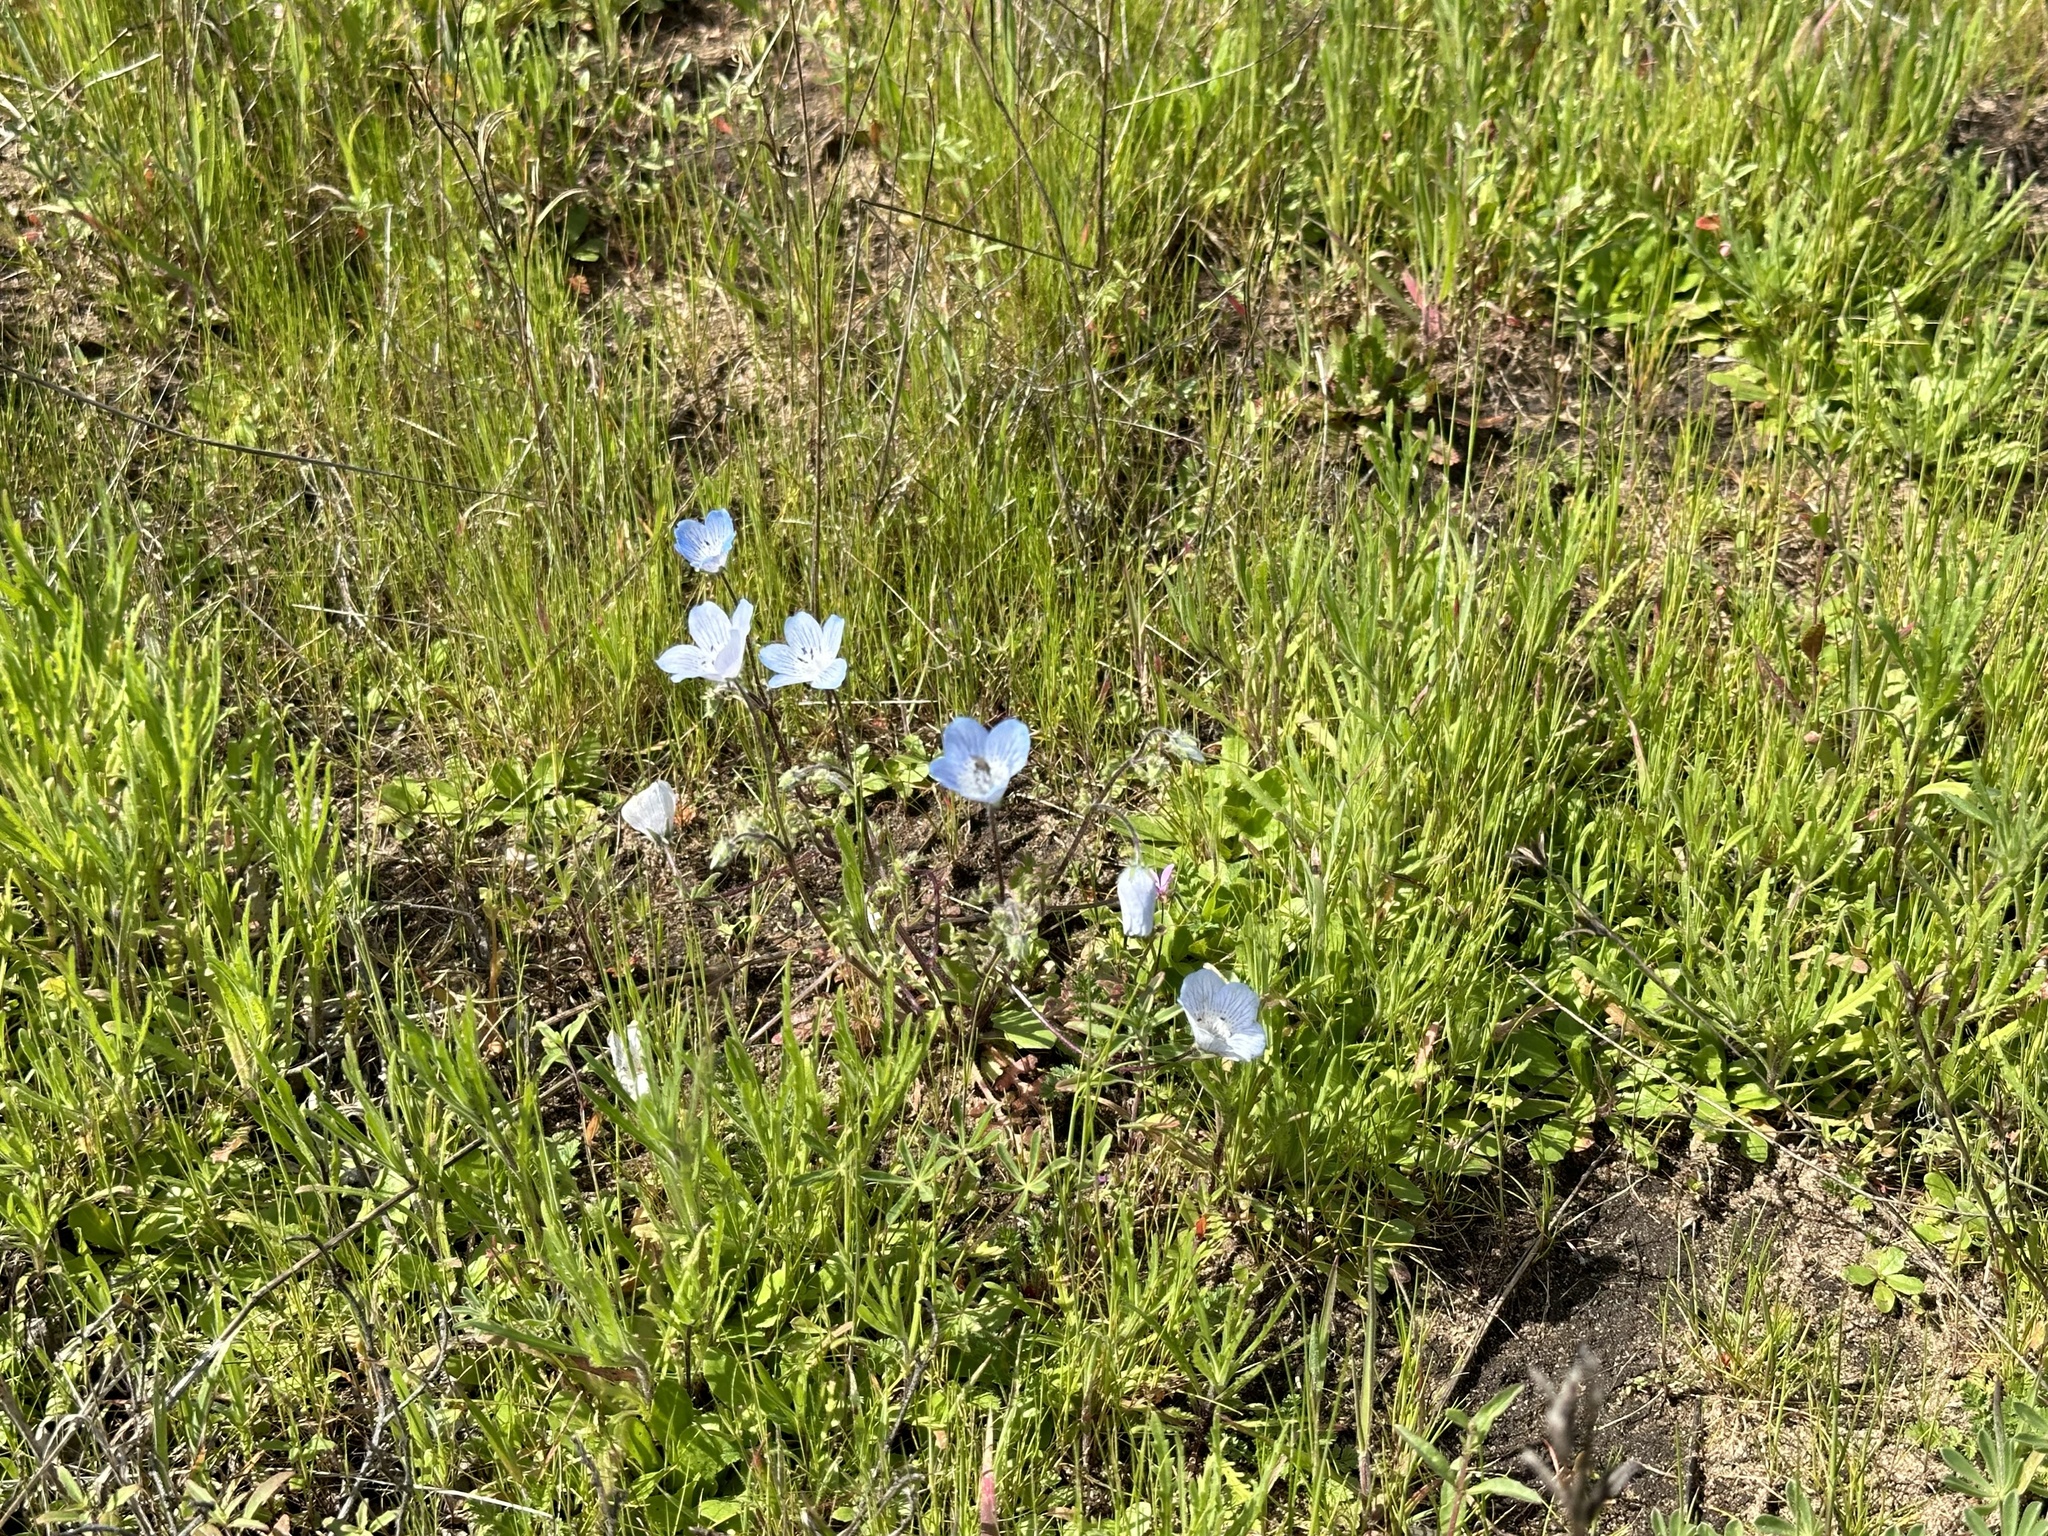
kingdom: Plantae
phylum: Tracheophyta
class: Magnoliopsida
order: Boraginales
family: Hydrophyllaceae
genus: Nemophila
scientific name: Nemophila menziesii
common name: Baby's-blue-eyes
